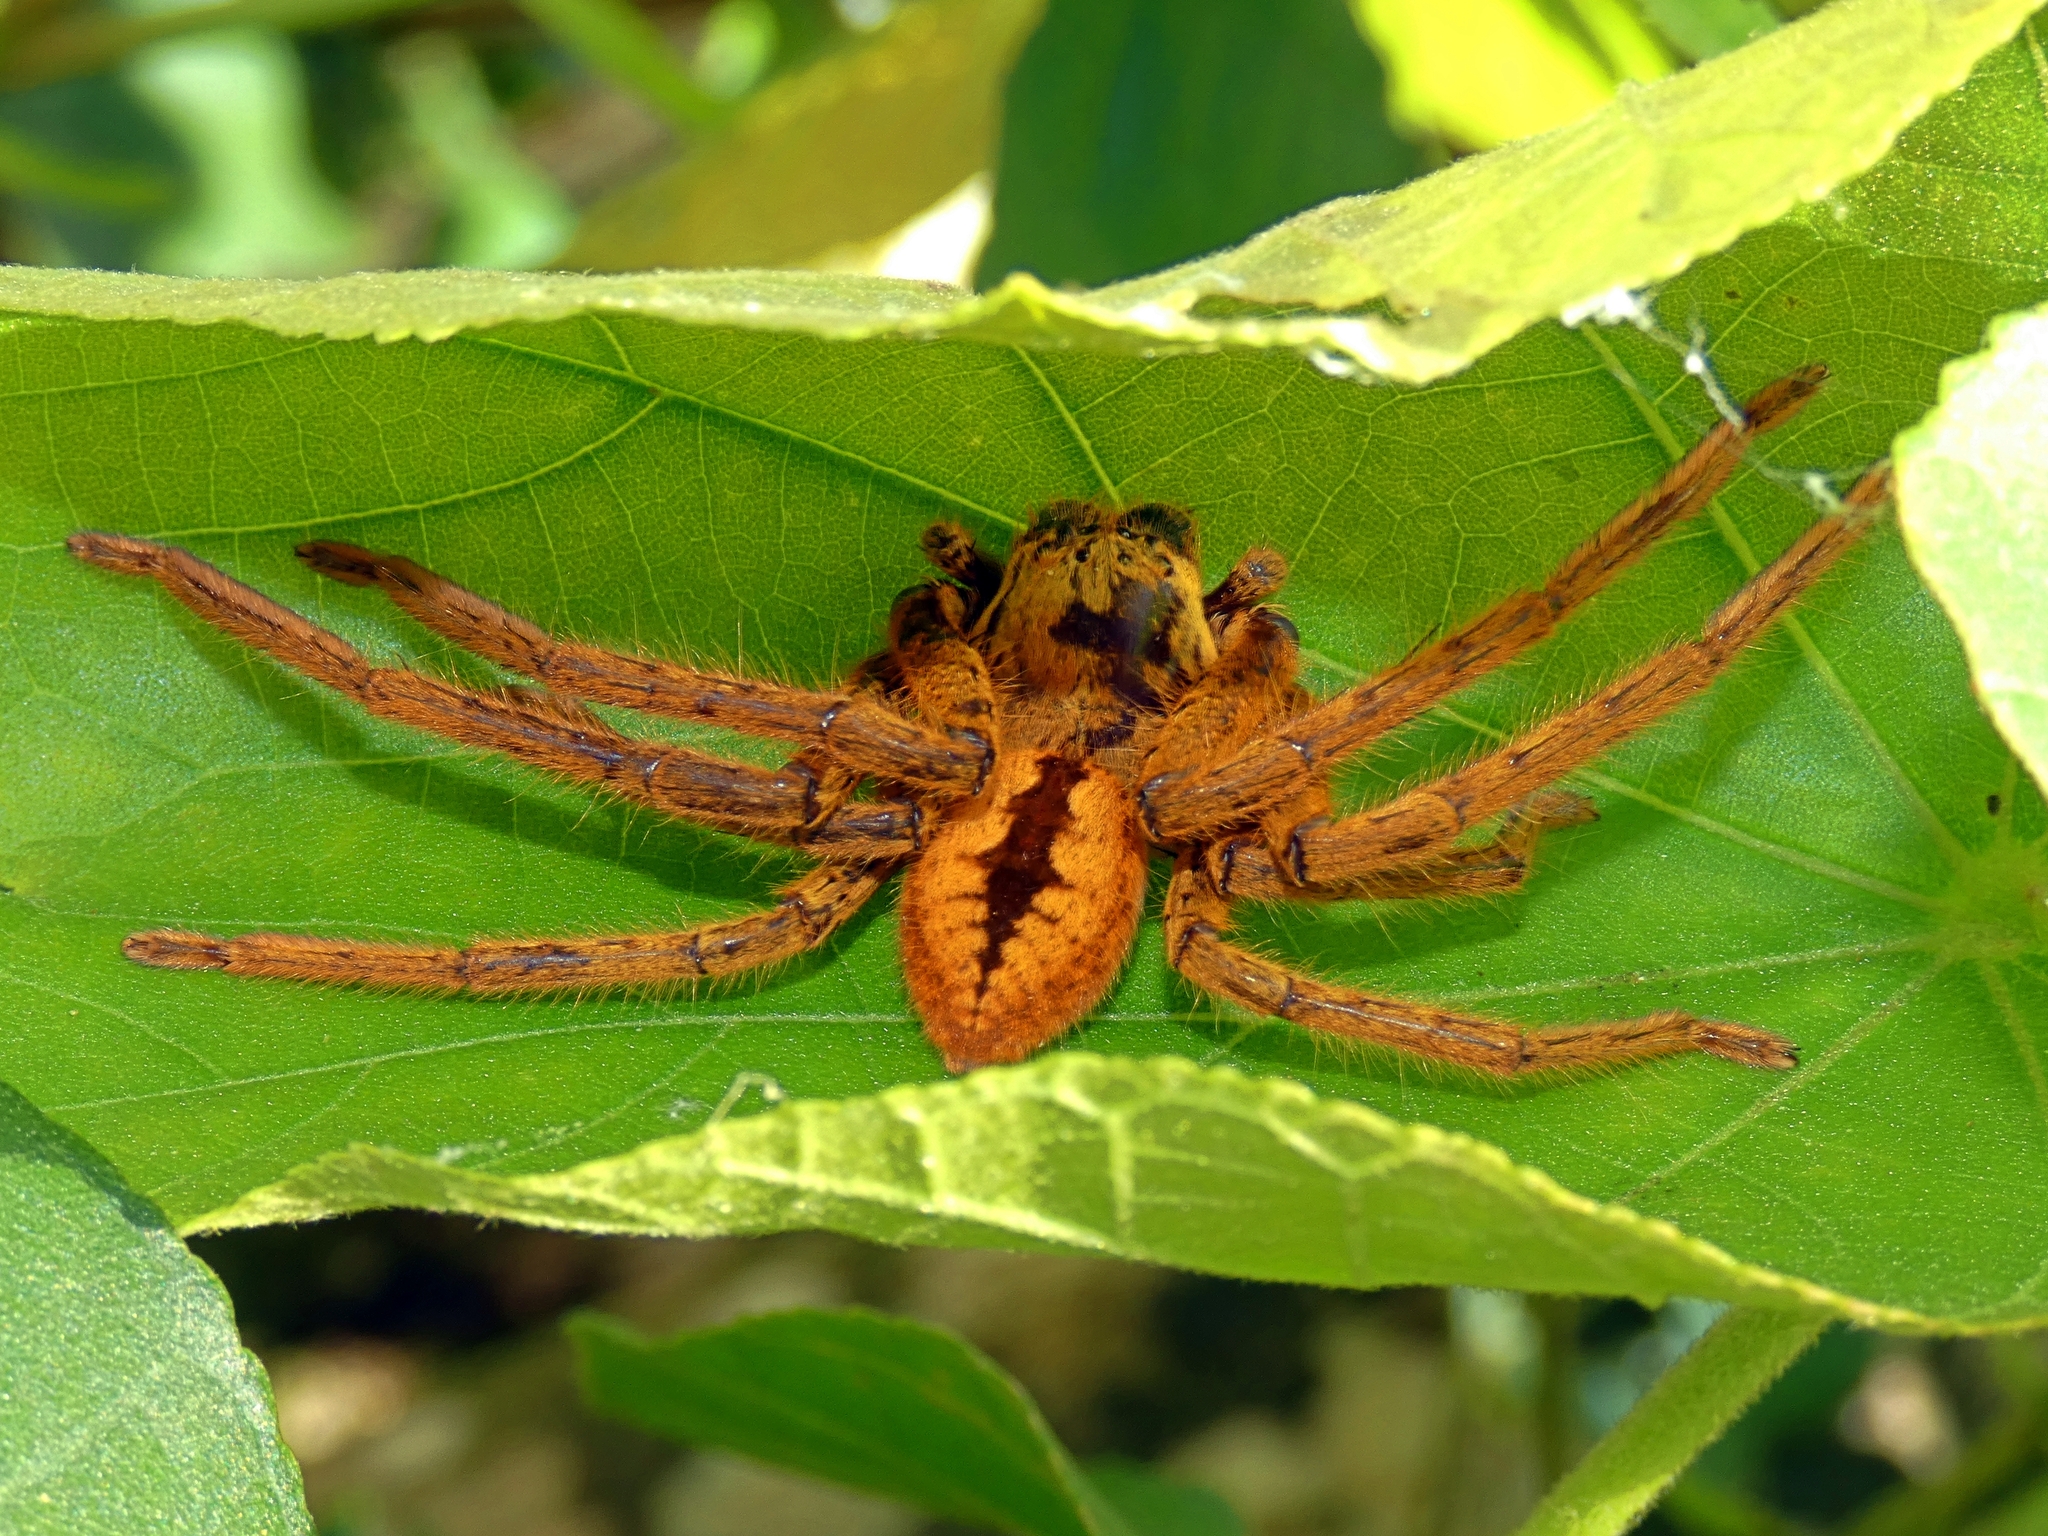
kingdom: Animalia
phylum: Arthropoda
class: Arachnida
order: Araneae
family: Sparassidae
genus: Beregama
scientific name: Beregama cordata
